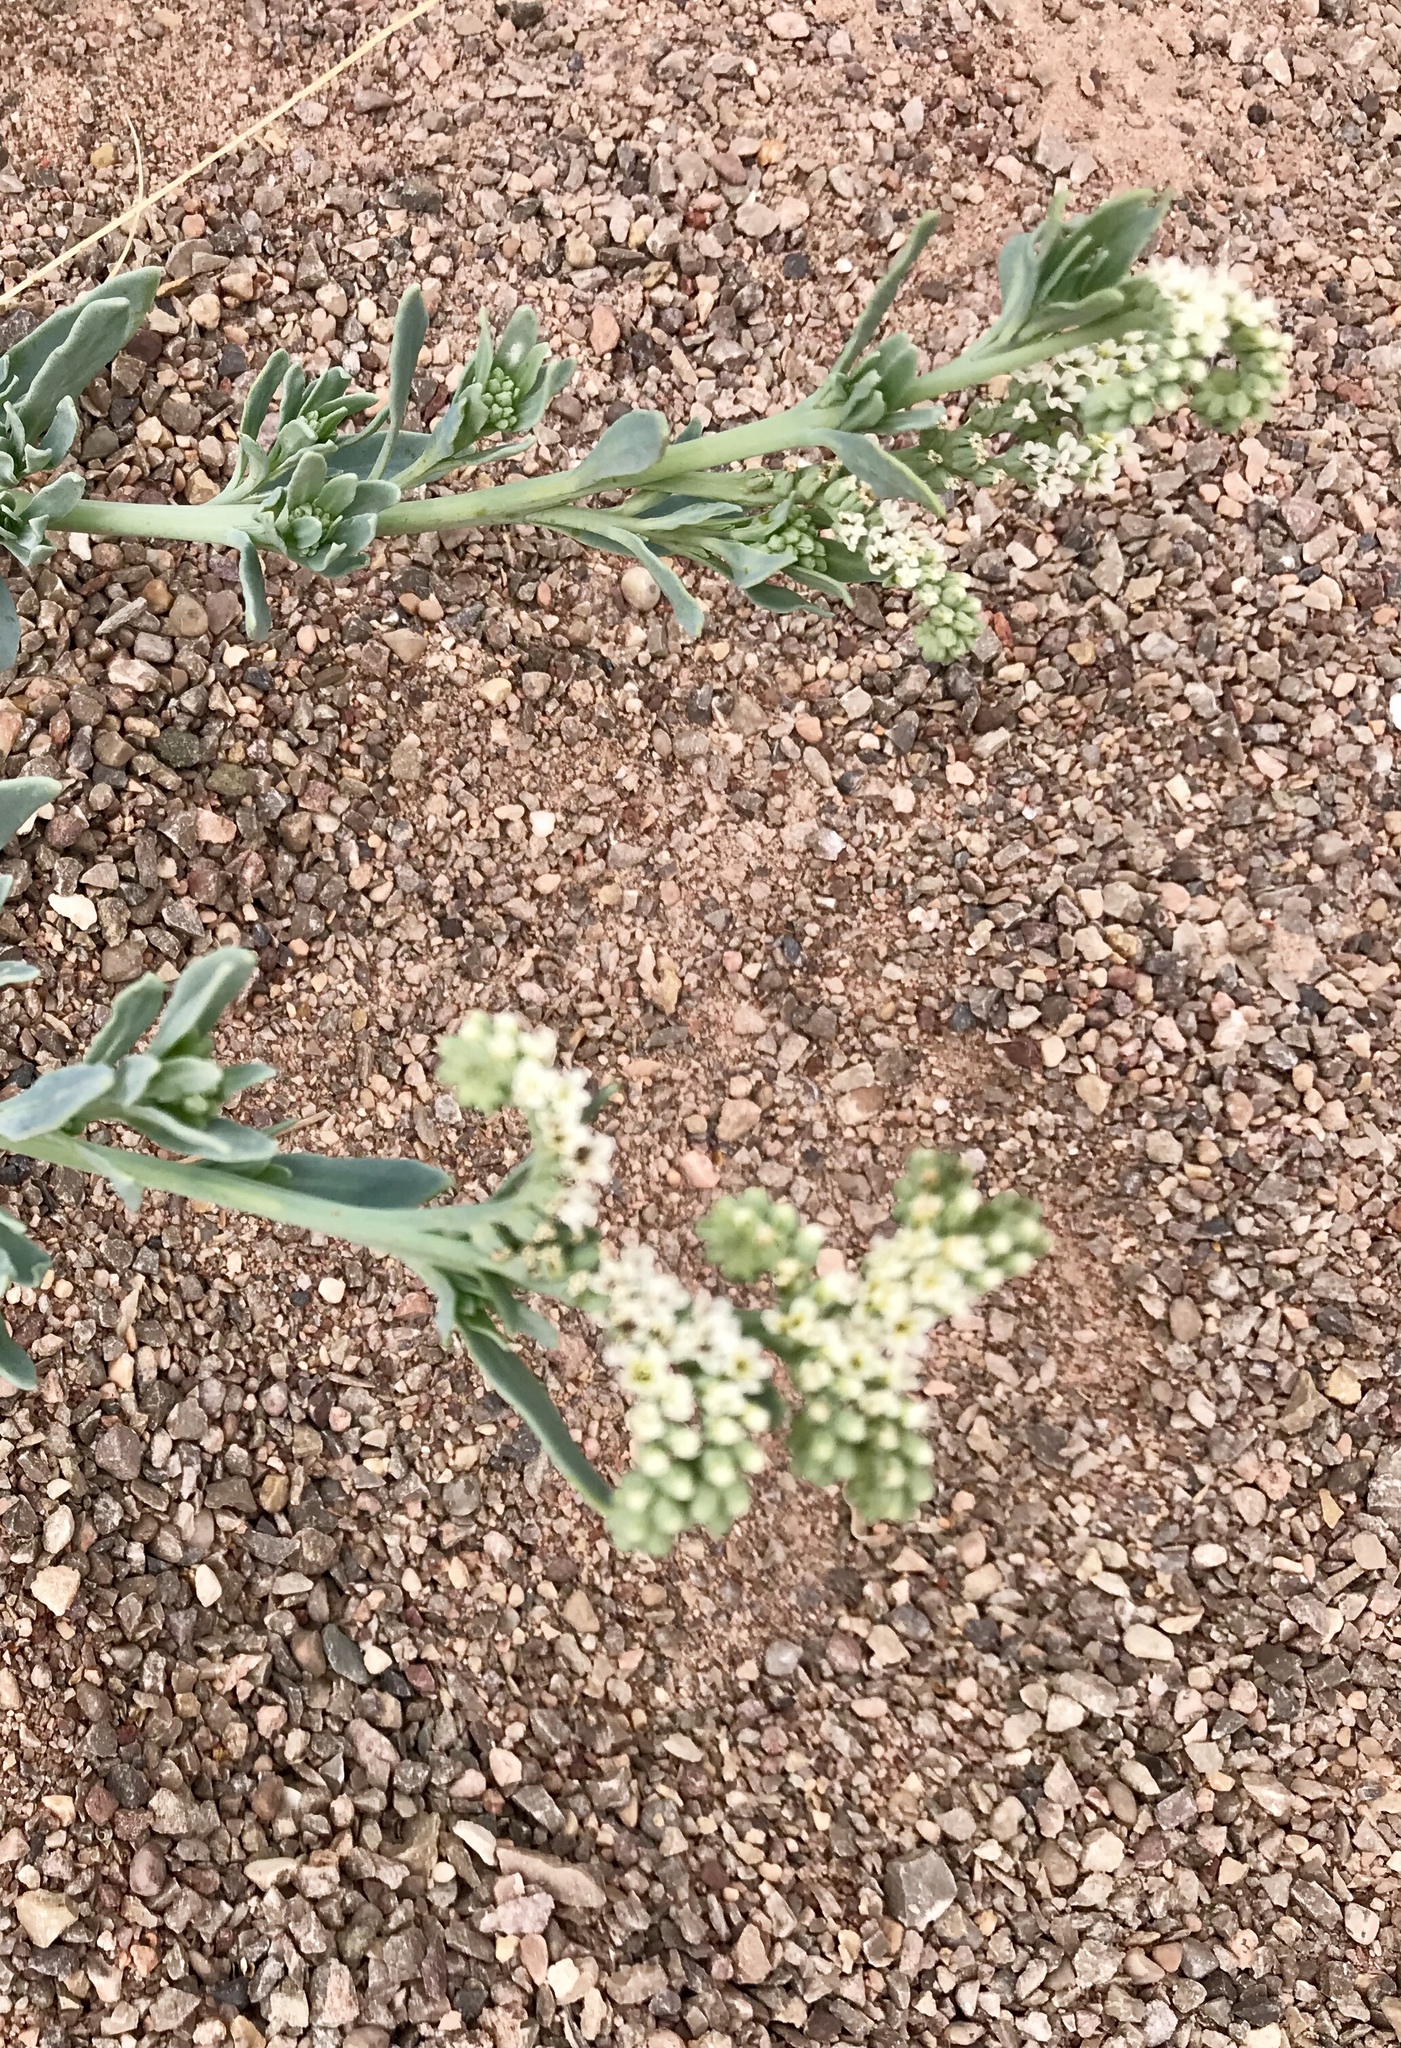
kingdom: Plantae
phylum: Tracheophyta
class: Magnoliopsida
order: Boraginales
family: Heliotropiaceae
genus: Heliotropium
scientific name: Heliotropium curassavicum
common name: Seaside heliotrope
